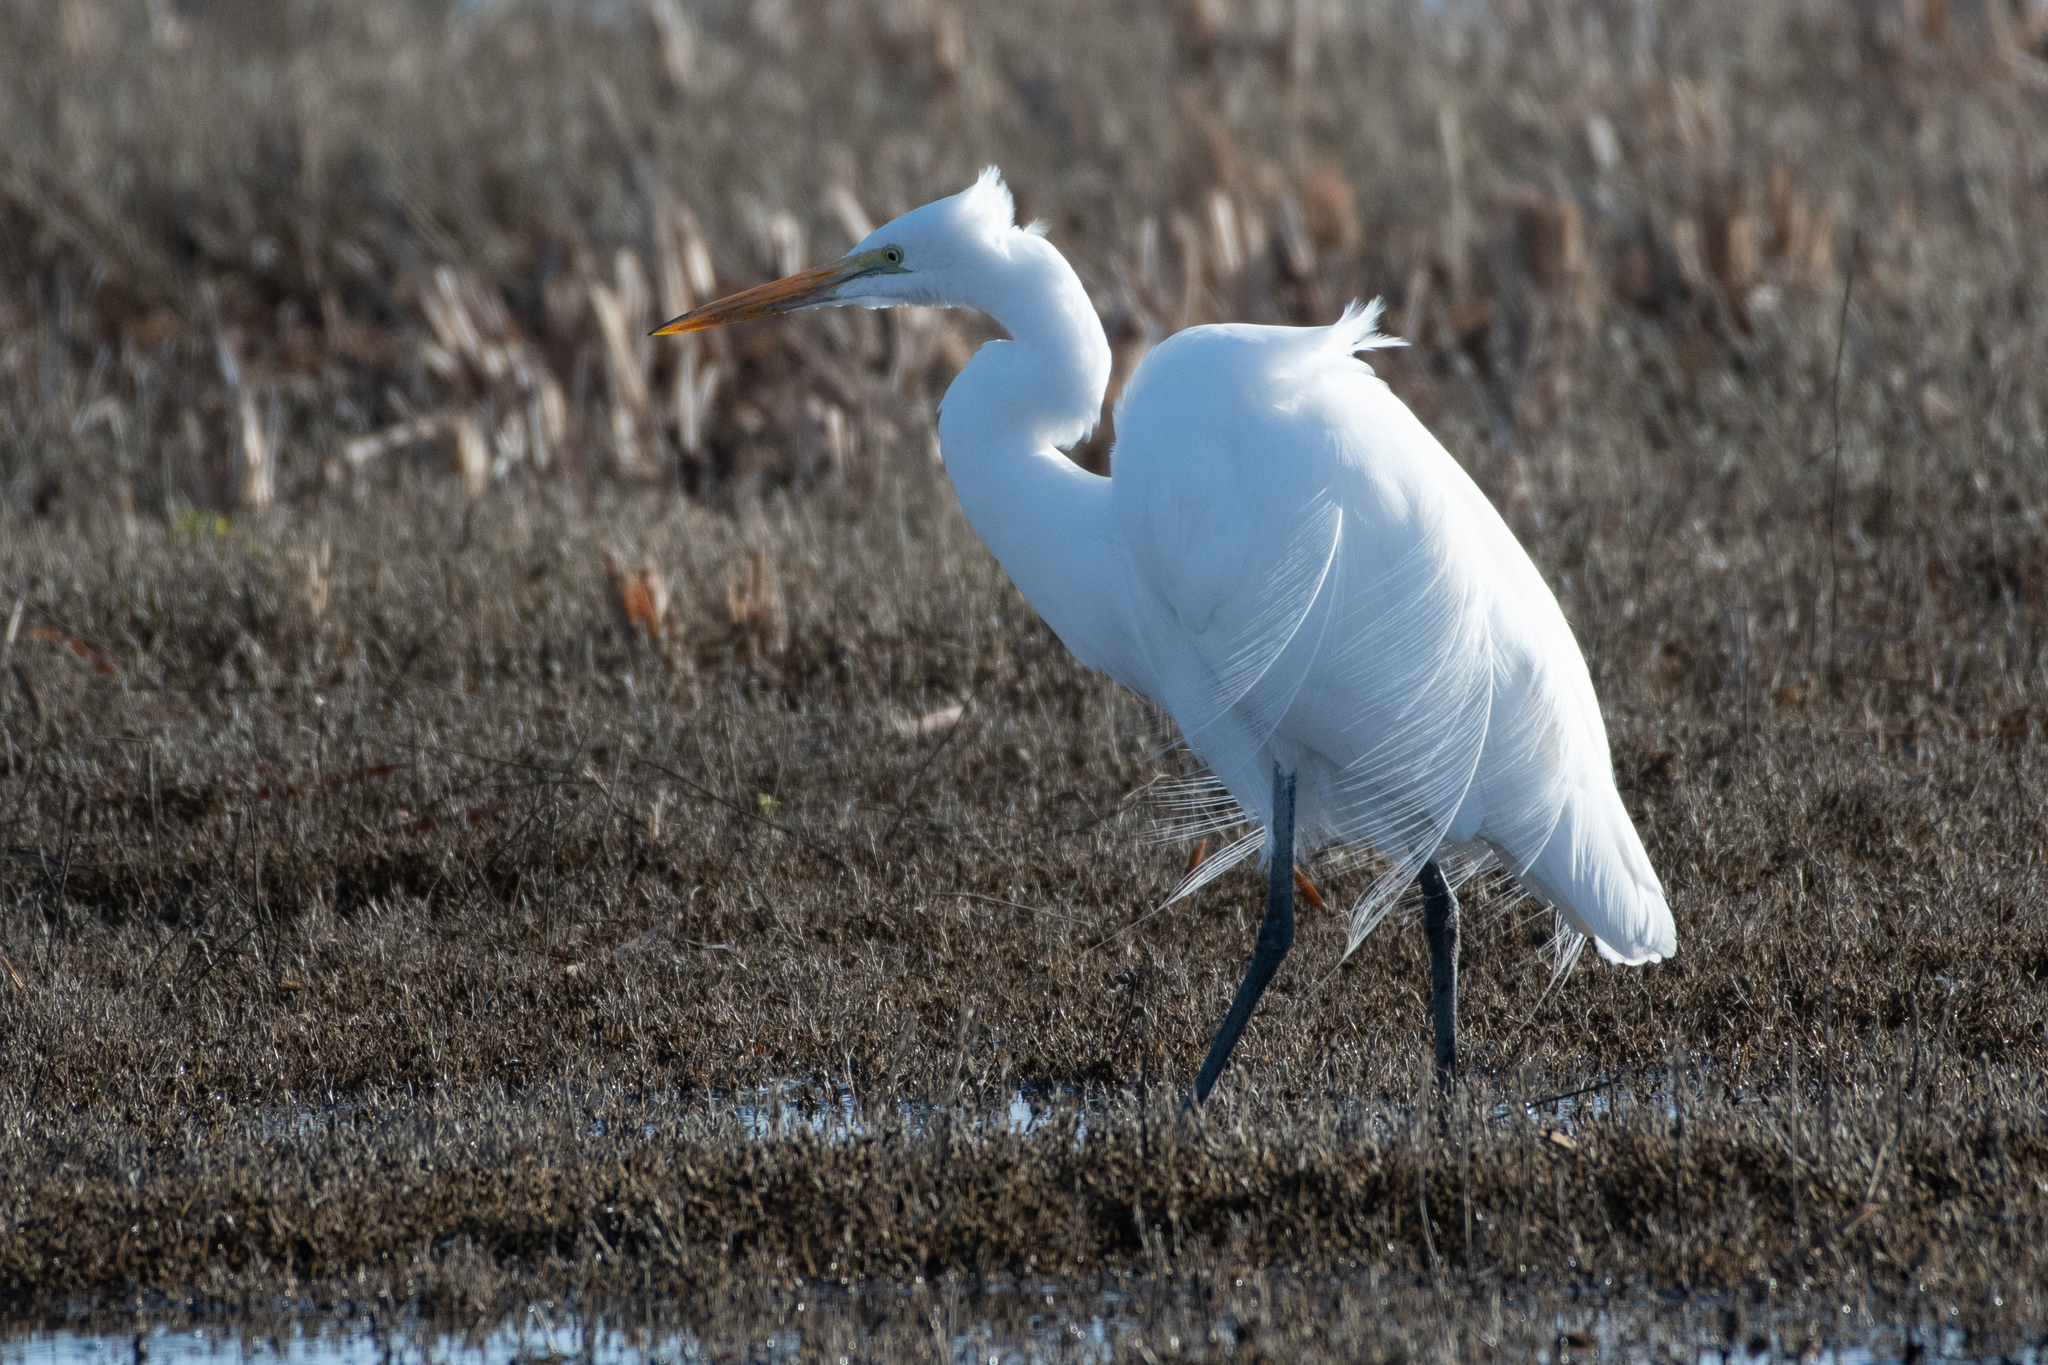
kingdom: Animalia
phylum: Chordata
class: Aves
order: Pelecaniformes
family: Ardeidae
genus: Ardea
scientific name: Ardea alba
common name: Great egret
